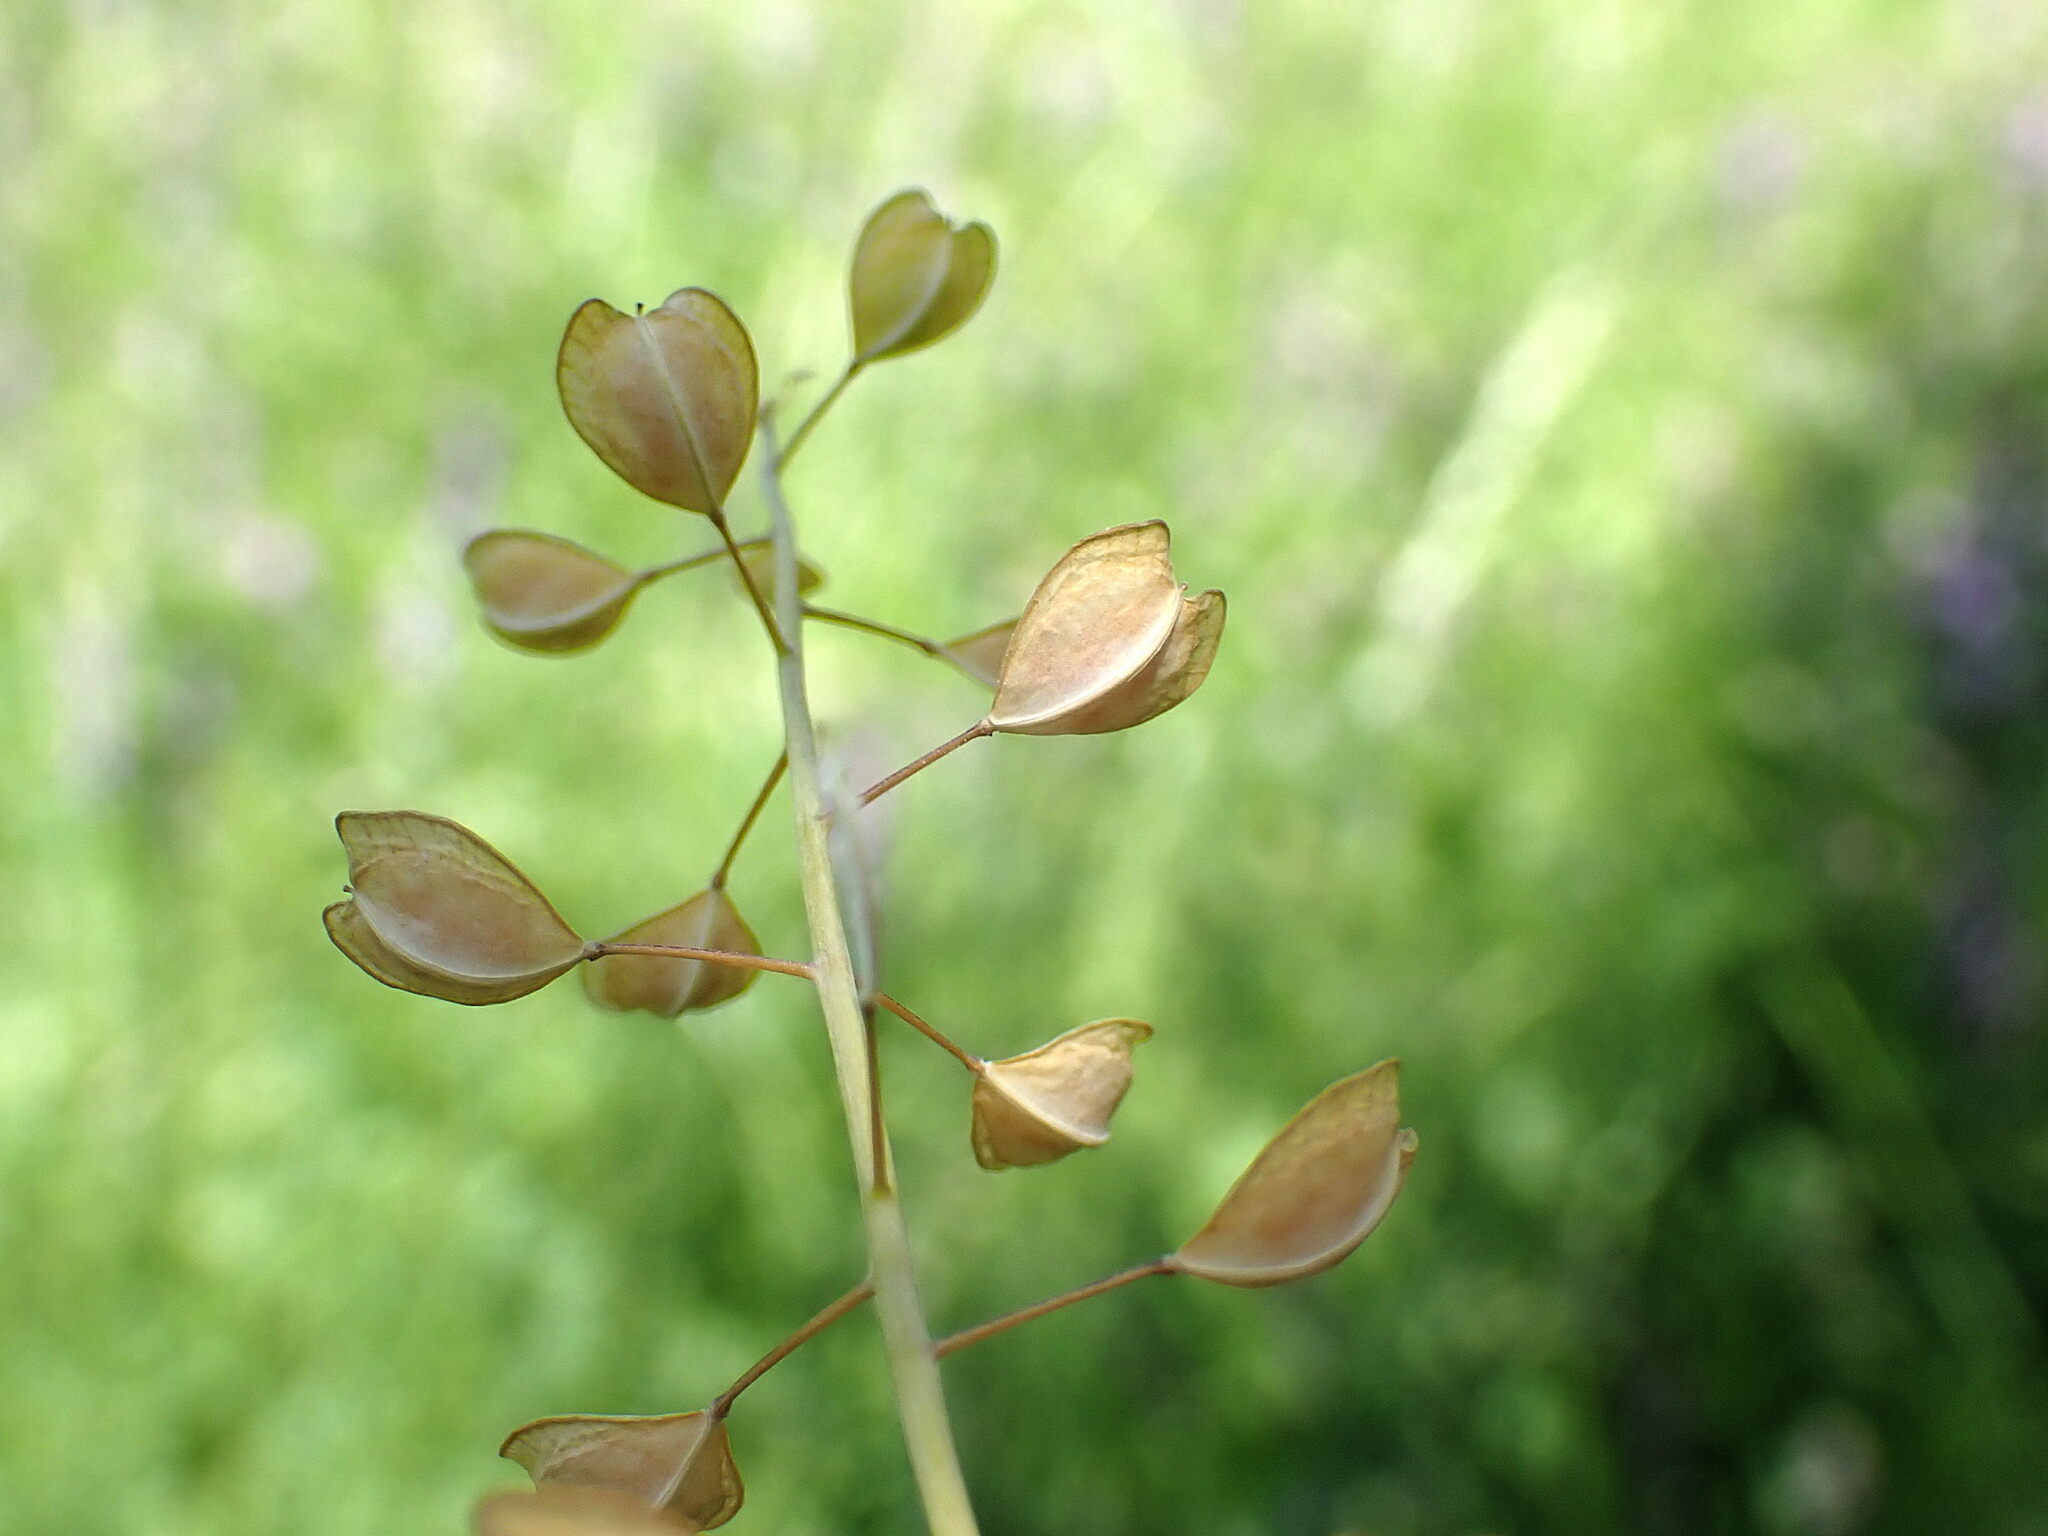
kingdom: Plantae
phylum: Tracheophyta
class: Magnoliopsida
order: Brassicales
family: Brassicaceae
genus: Noccaea
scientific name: Noccaea perfoliata
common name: Perfoliate pennycress
